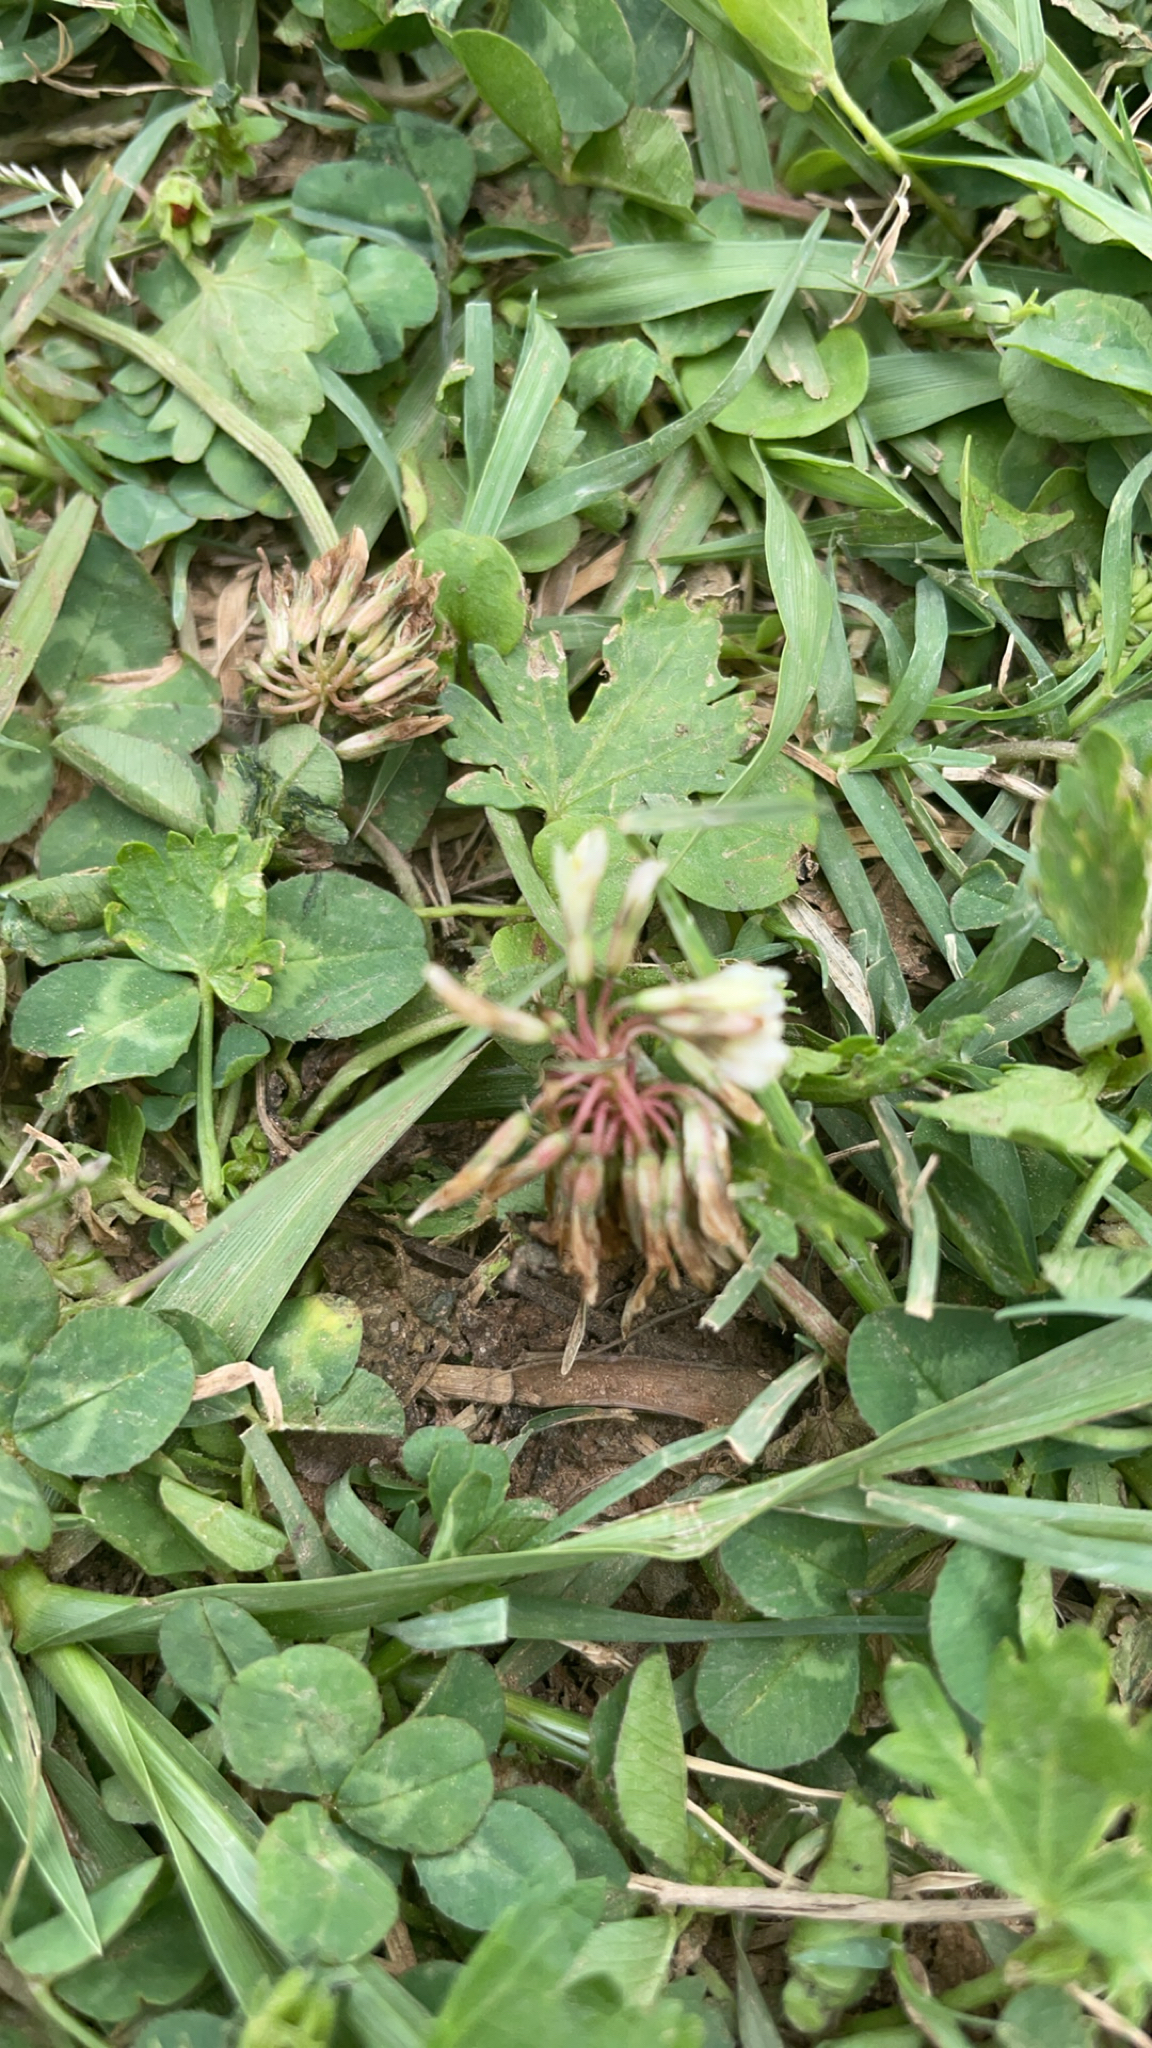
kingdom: Plantae
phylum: Tracheophyta
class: Magnoliopsida
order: Fabales
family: Fabaceae
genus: Trifolium
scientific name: Trifolium repens
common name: White clover
